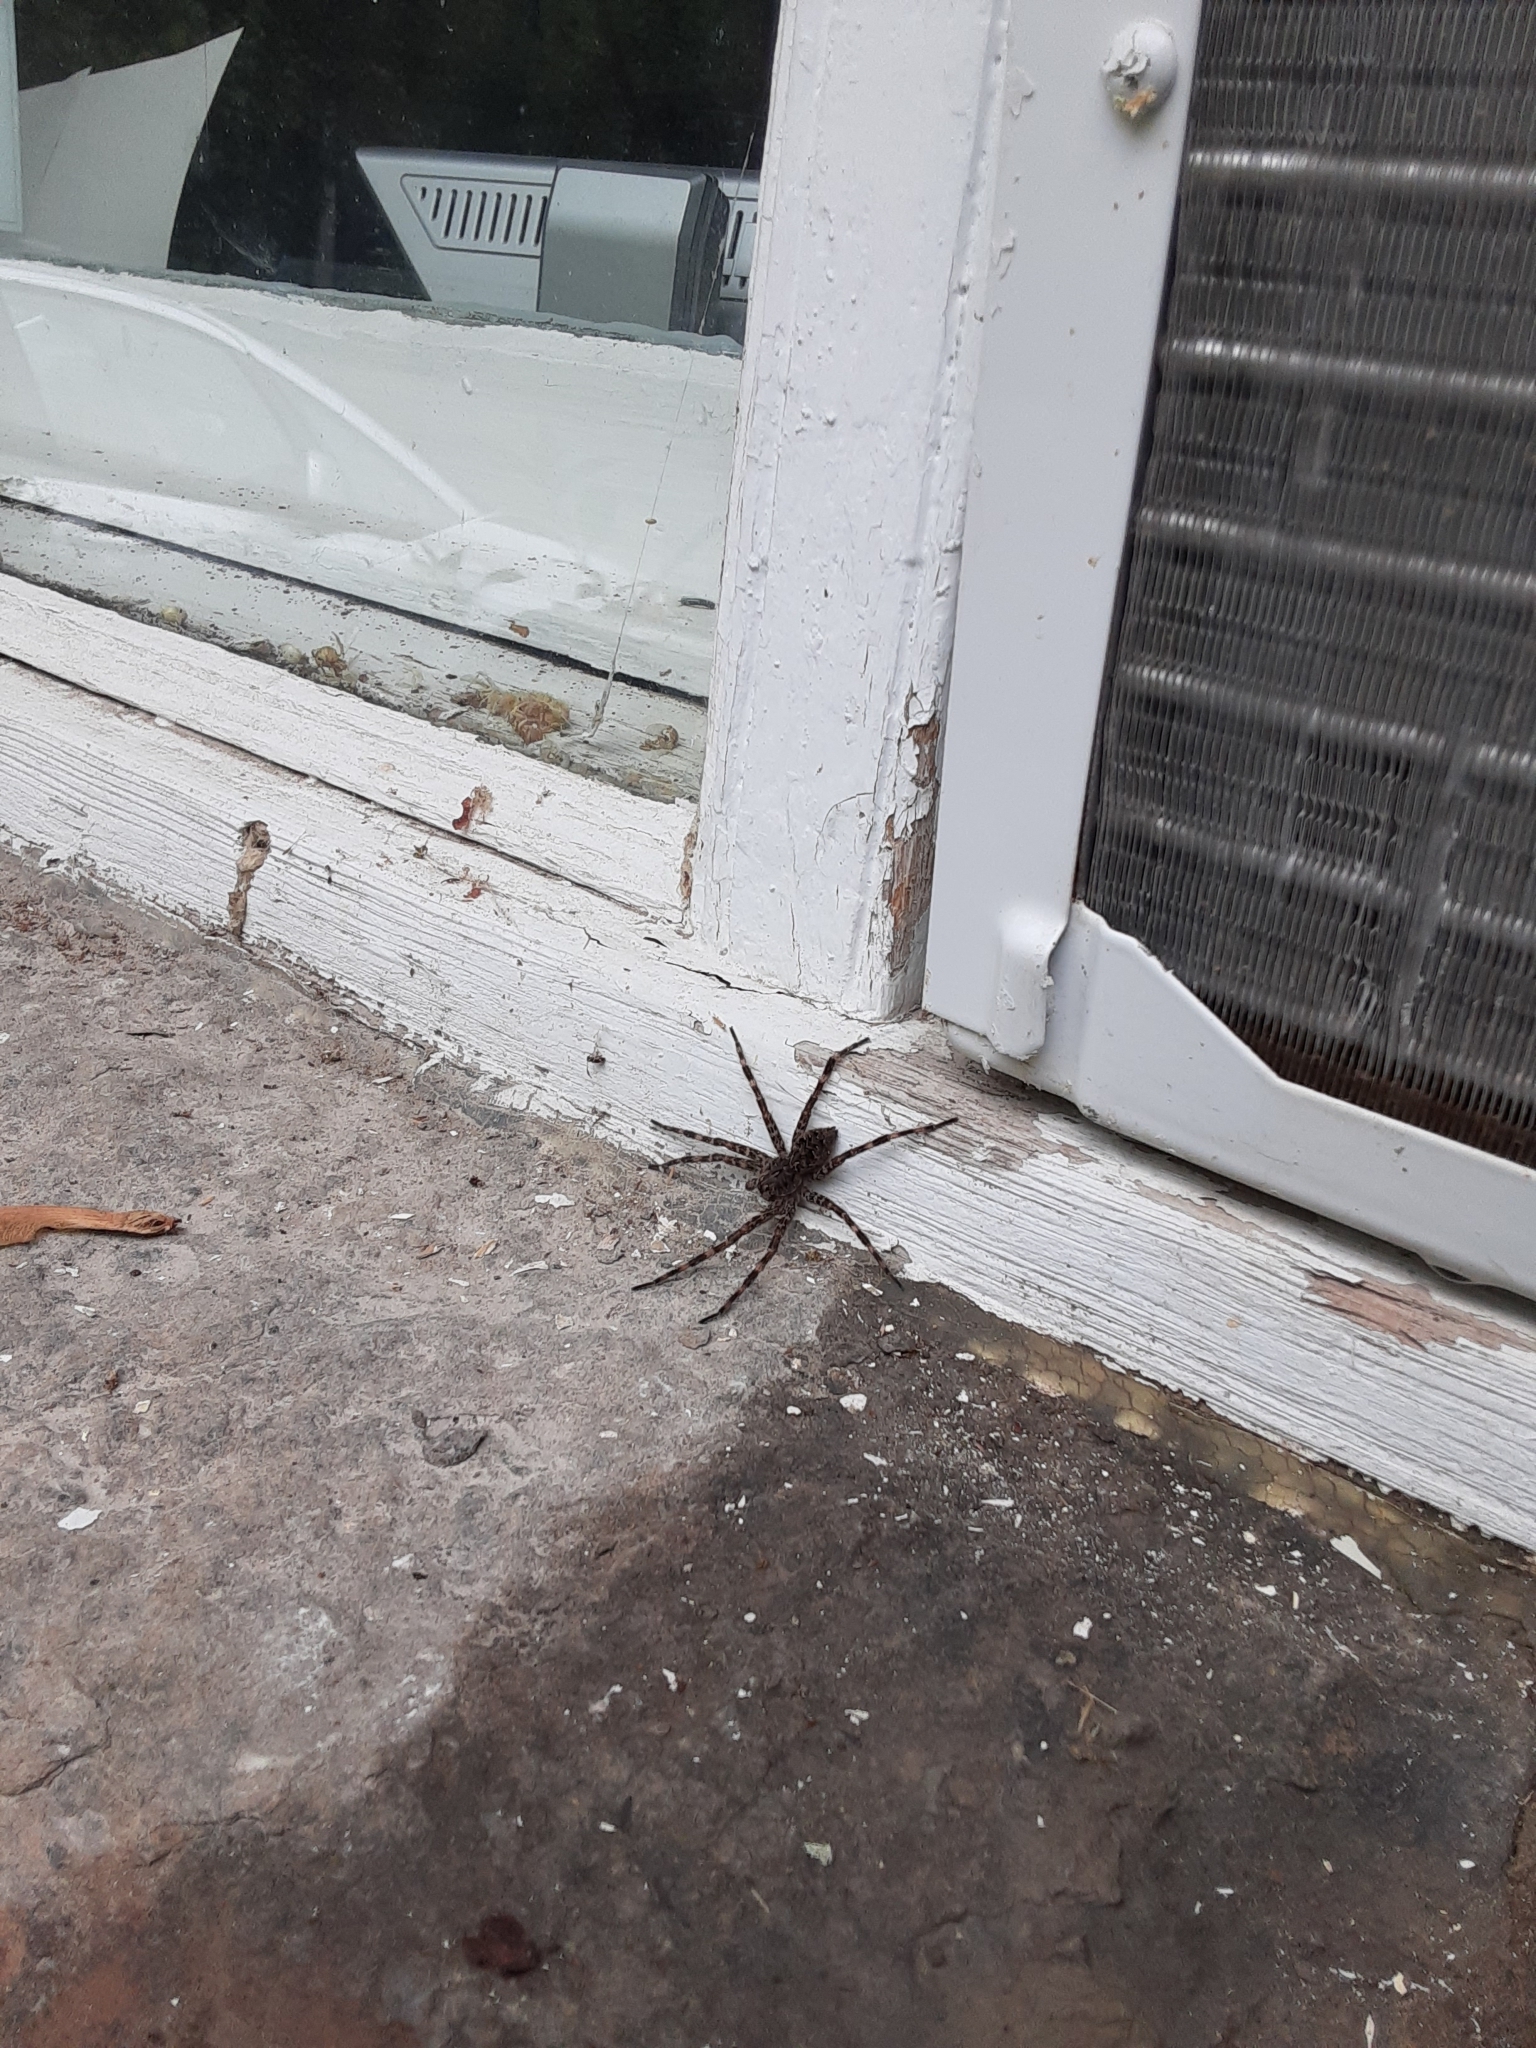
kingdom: Animalia
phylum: Arthropoda
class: Arachnida
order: Araneae
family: Pisauridae
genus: Dolomedes
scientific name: Dolomedes tenebrosus
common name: Dark fishing spider
